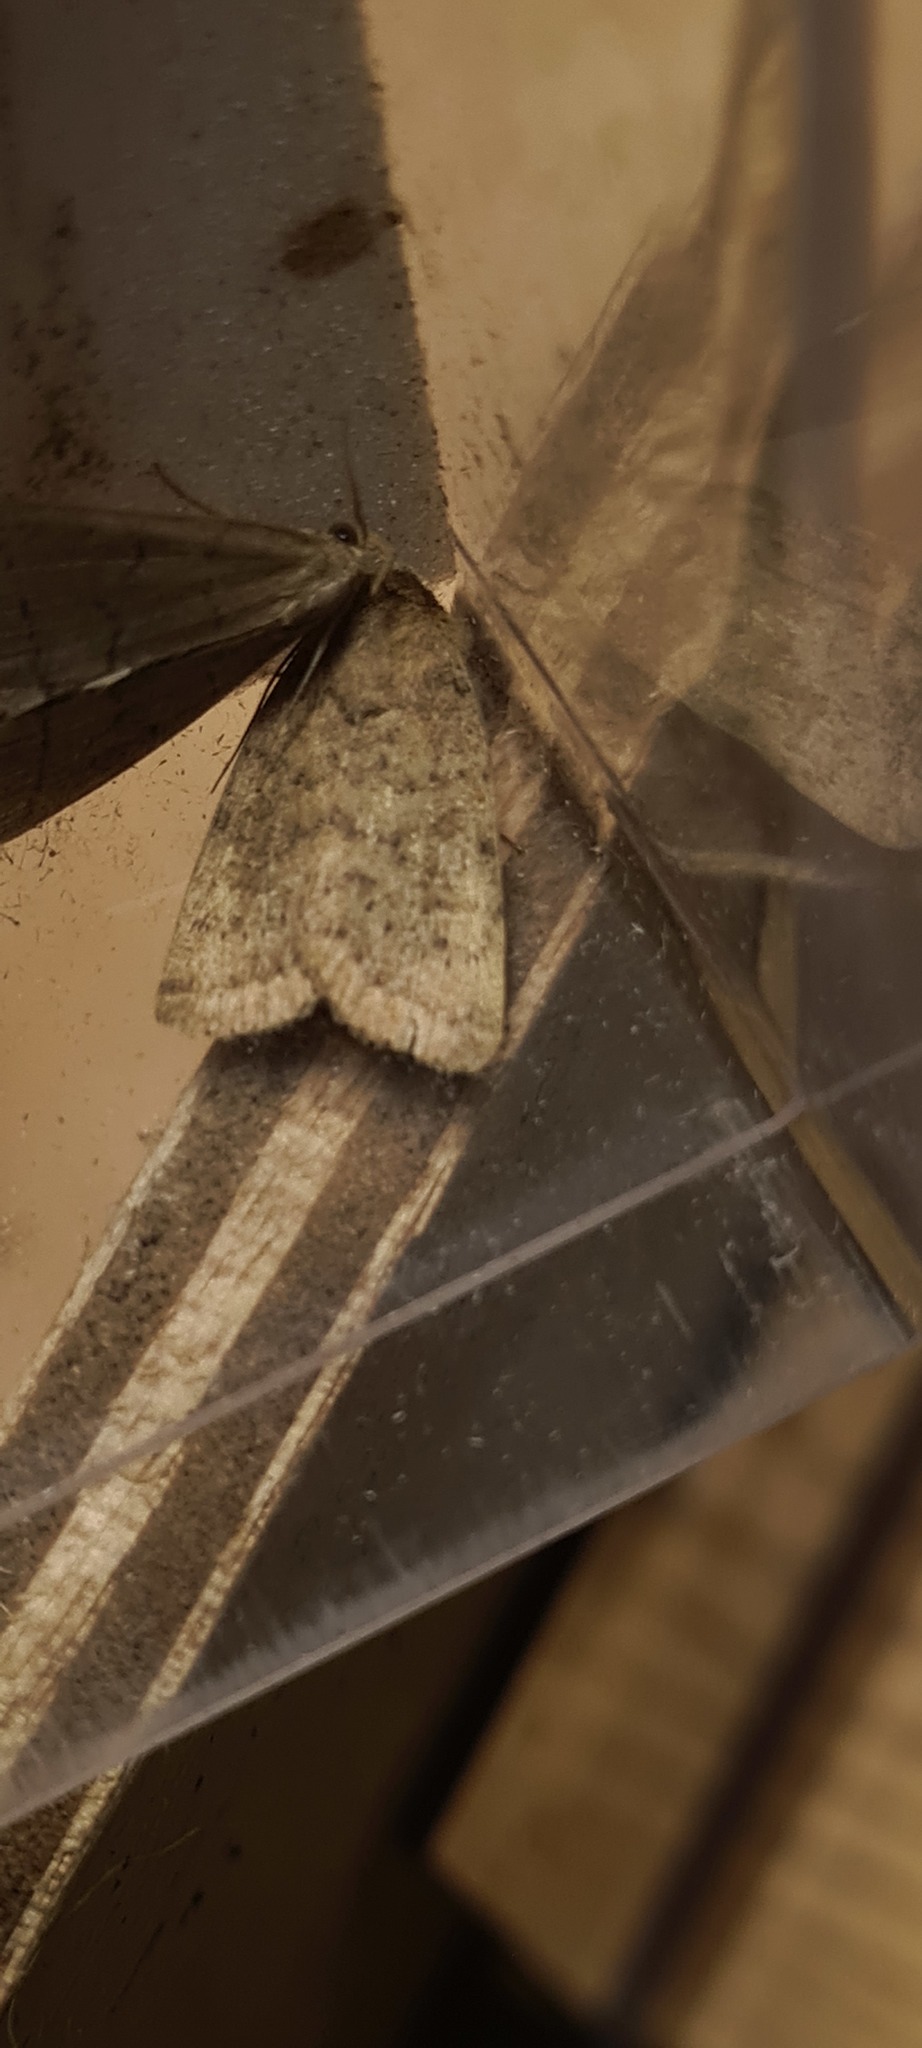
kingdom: Animalia
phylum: Arthropoda
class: Insecta
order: Lepidoptera
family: Noctuidae
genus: Hoplodrina
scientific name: Hoplodrina octogenaria
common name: Uncertain
